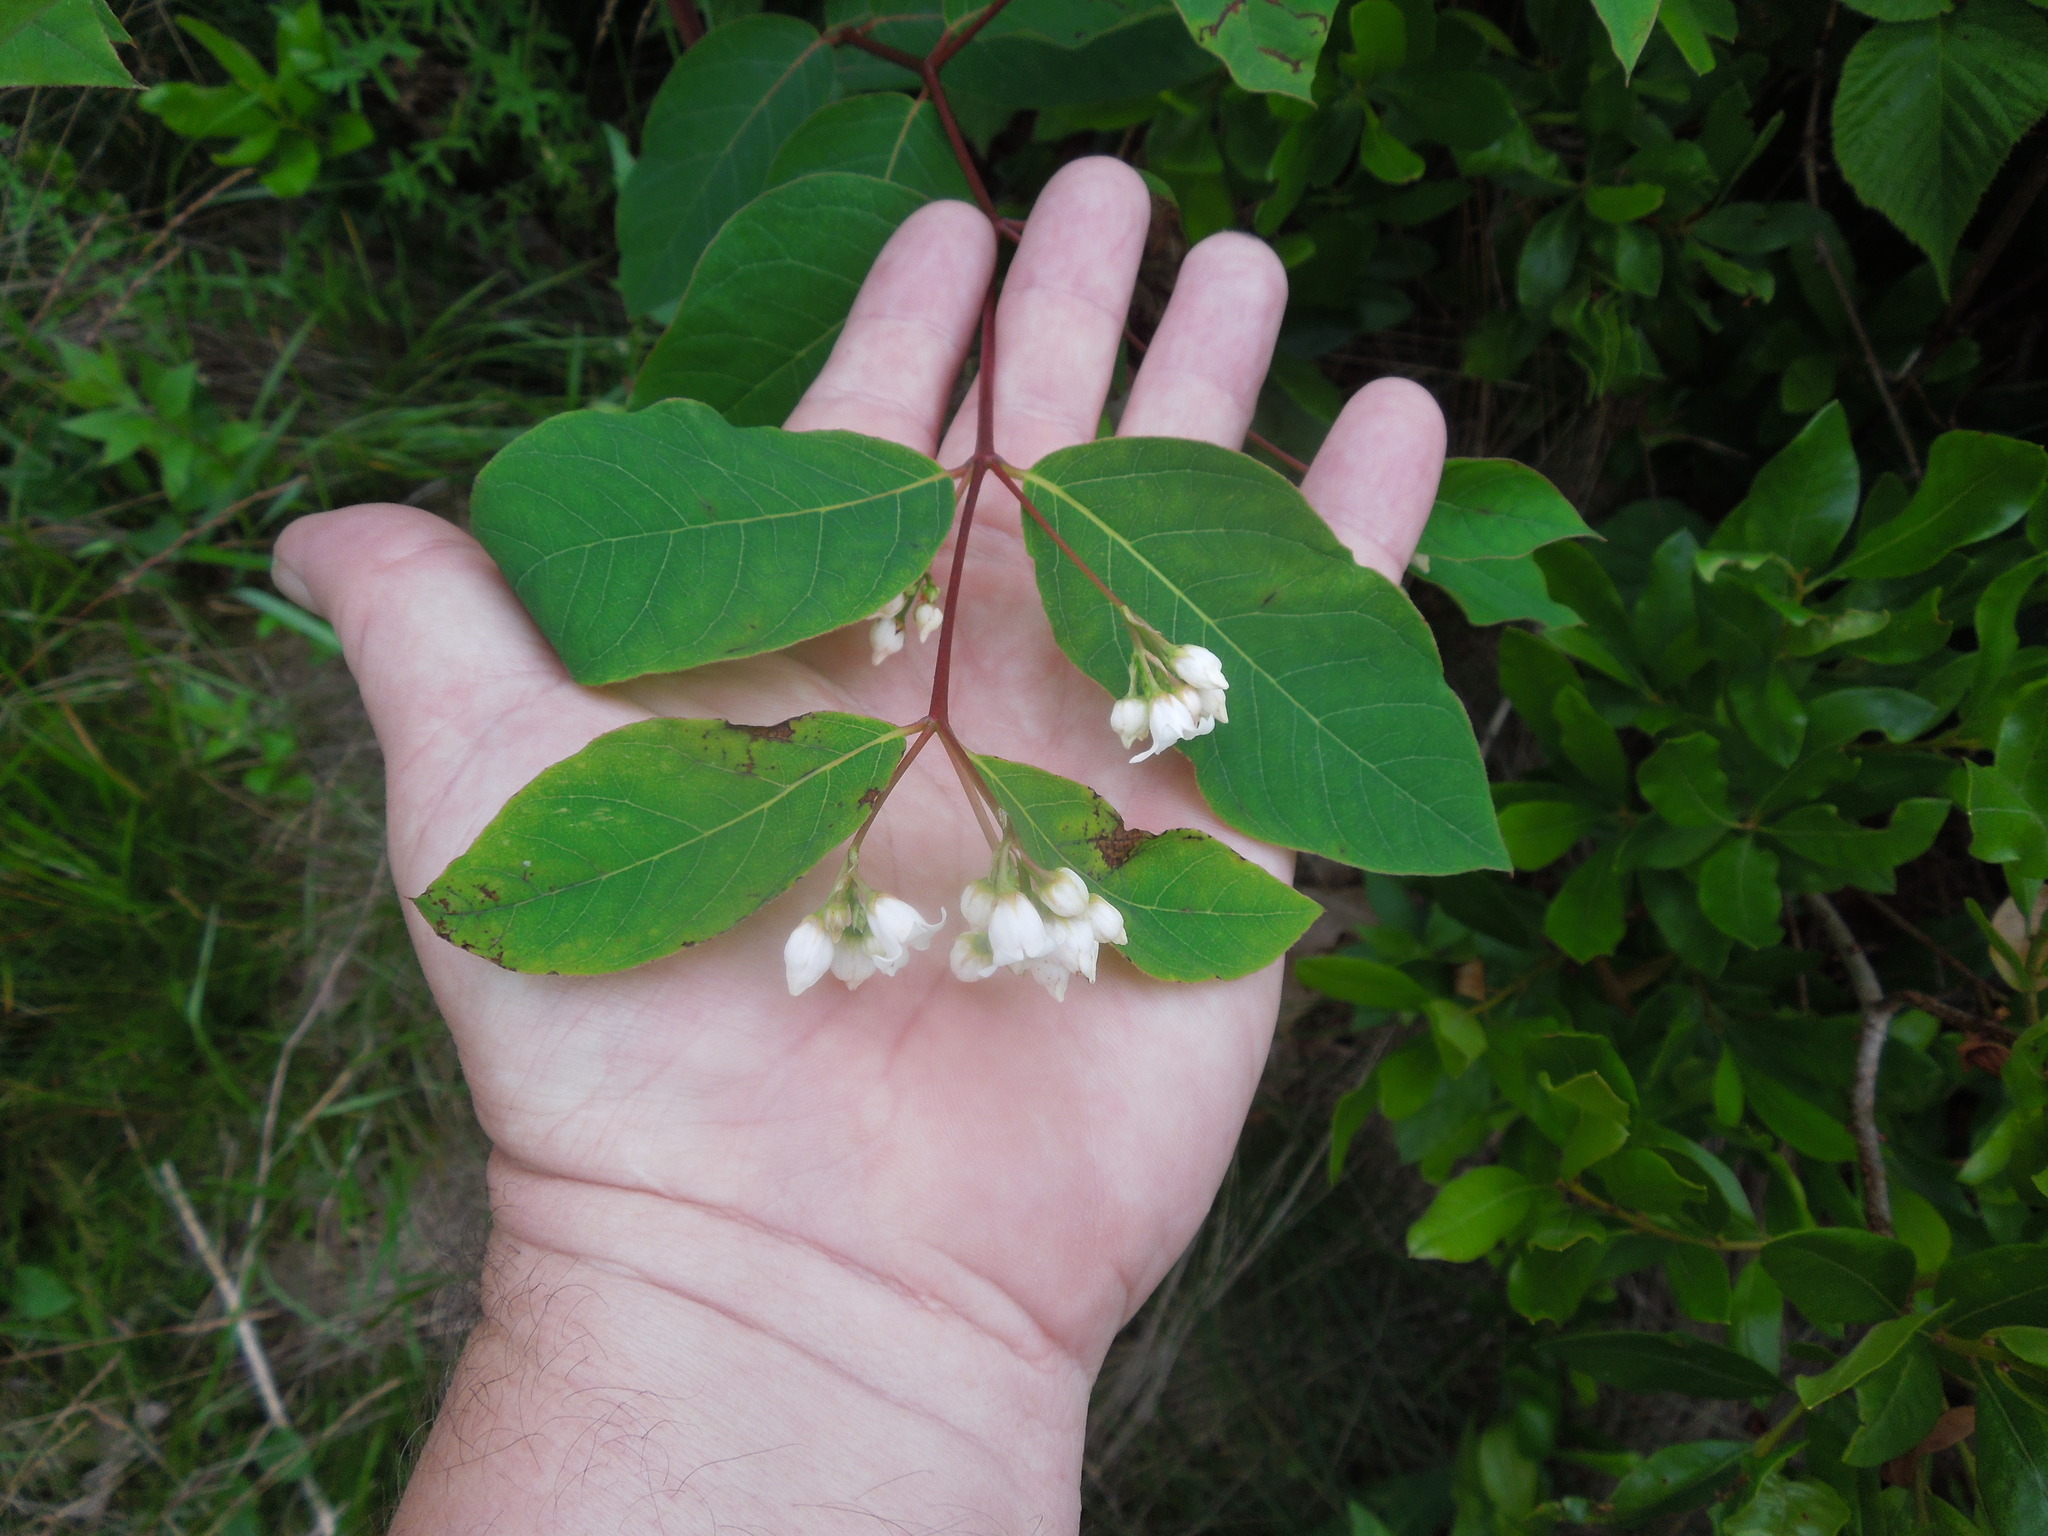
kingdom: Plantae
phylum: Tracheophyta
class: Magnoliopsida
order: Gentianales
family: Apocynaceae
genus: Apocynum
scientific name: Apocynum androsaemifolium
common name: Spreading dogbane
